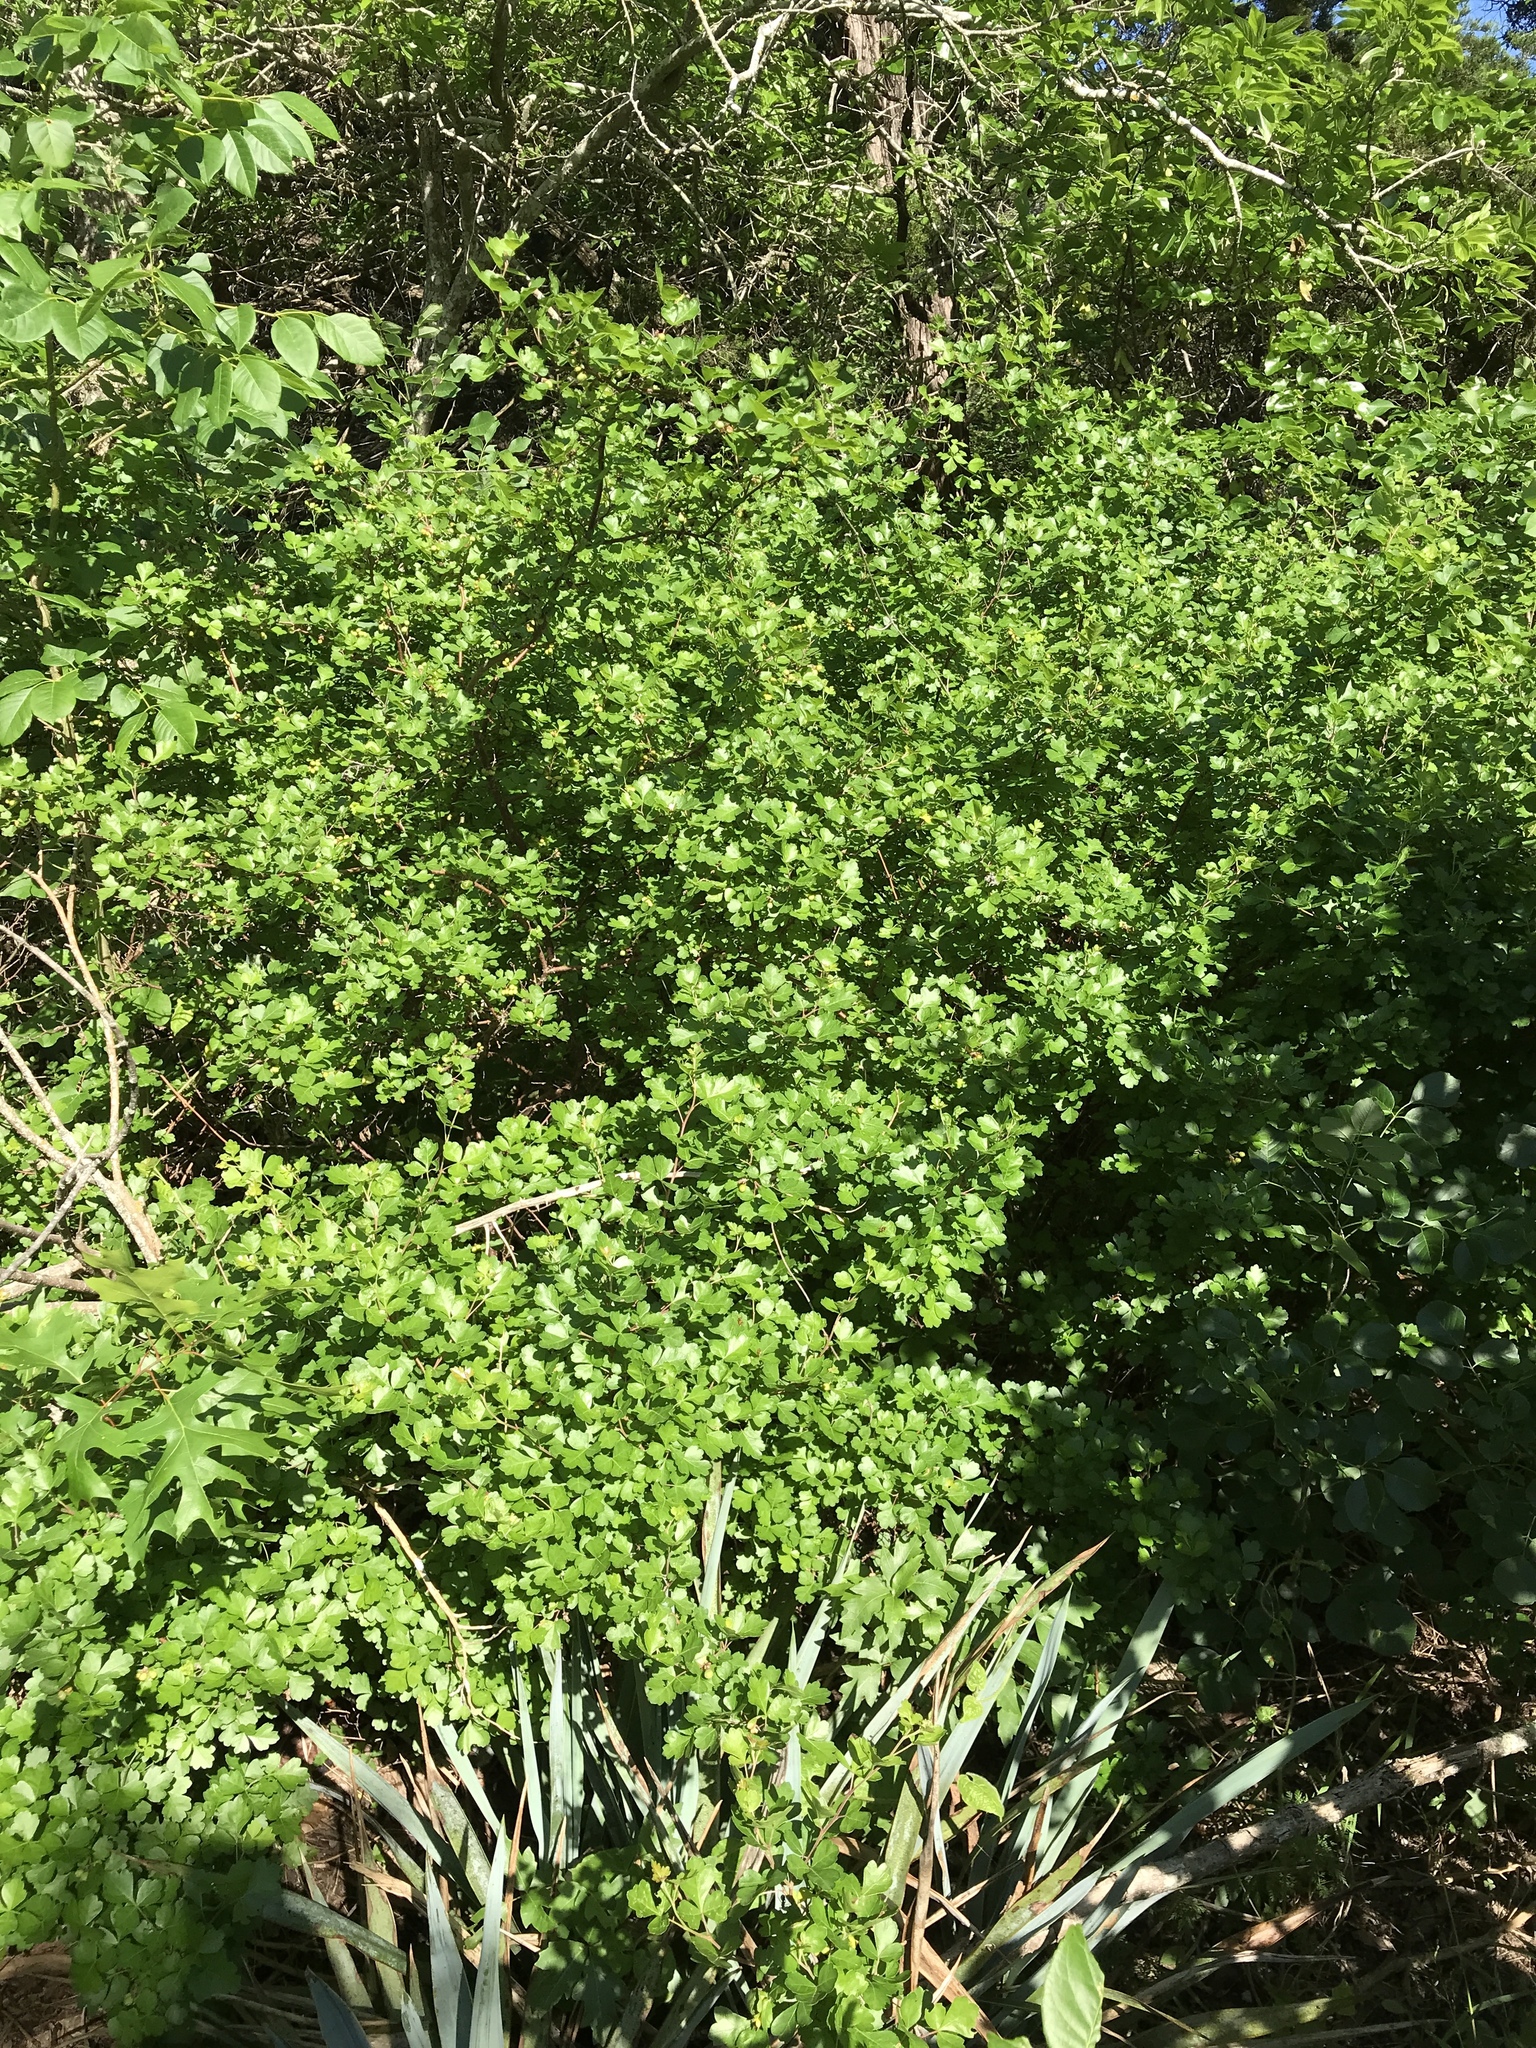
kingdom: Plantae
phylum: Tracheophyta
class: Magnoliopsida
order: Sapindales
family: Anacardiaceae
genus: Rhus
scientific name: Rhus aromatica
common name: Aromatic sumac
